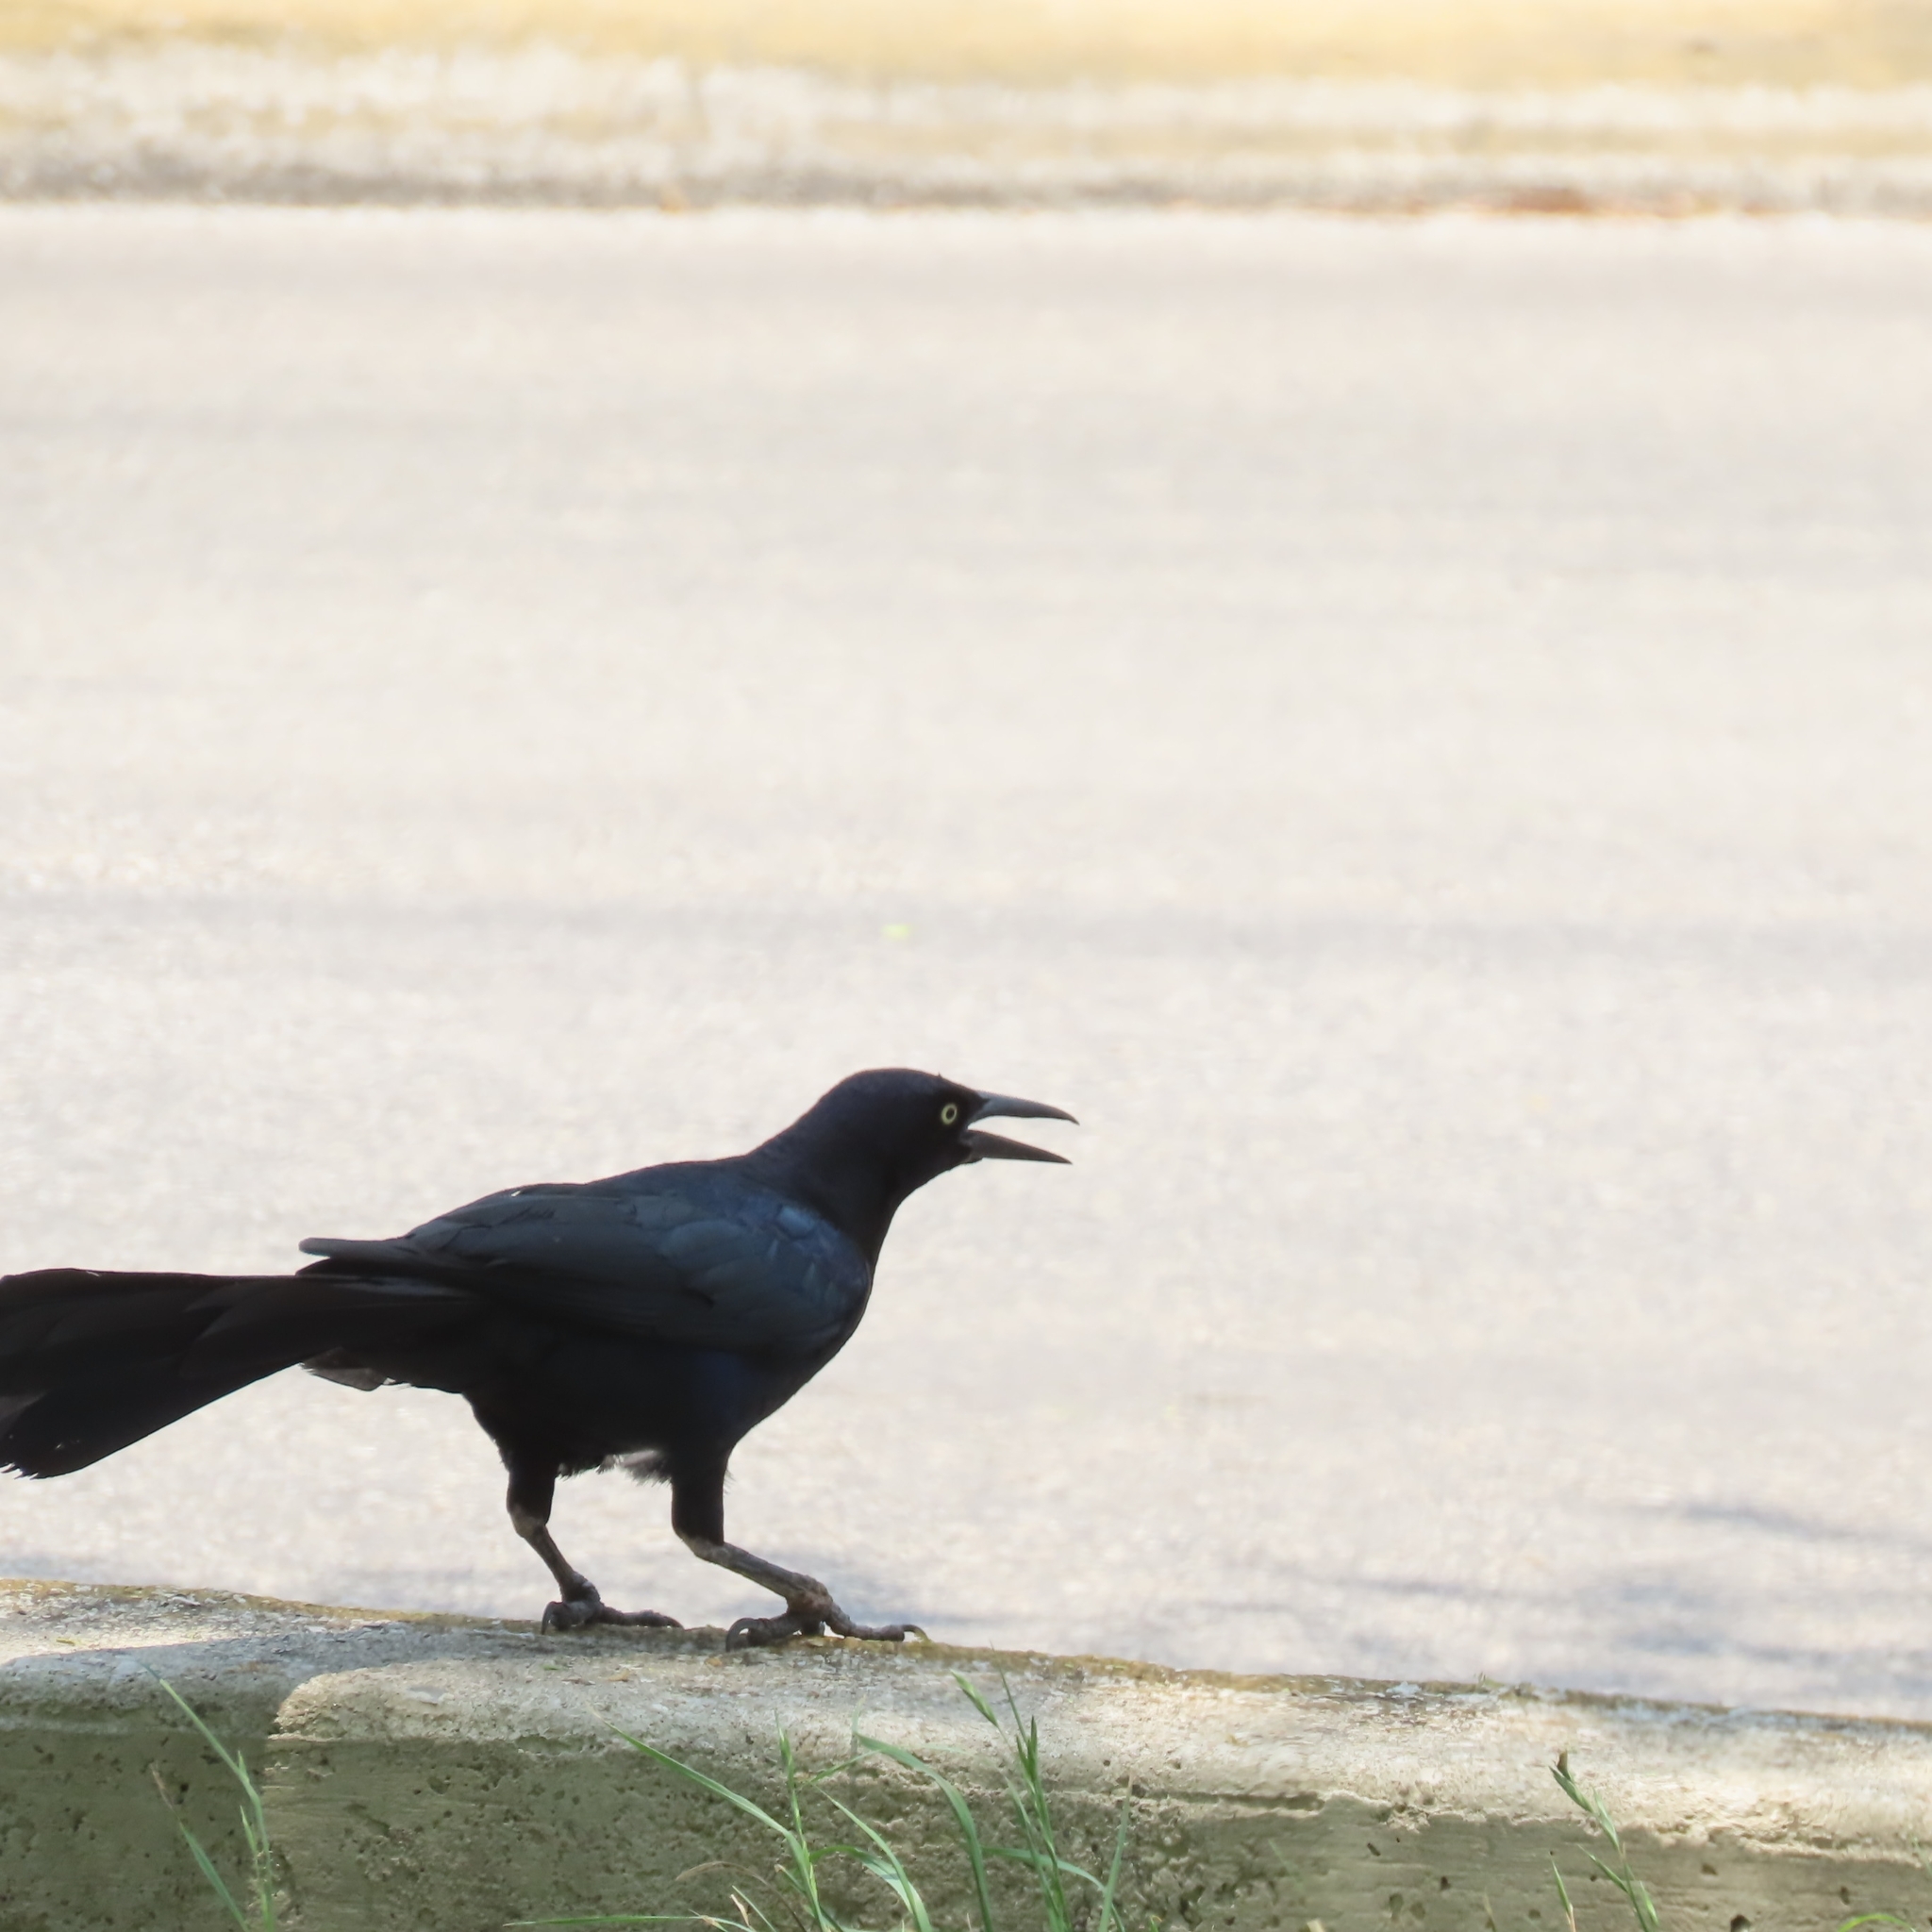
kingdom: Animalia
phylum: Chordata
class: Aves
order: Passeriformes
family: Icteridae
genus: Quiscalus
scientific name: Quiscalus mexicanus
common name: Great-tailed grackle
